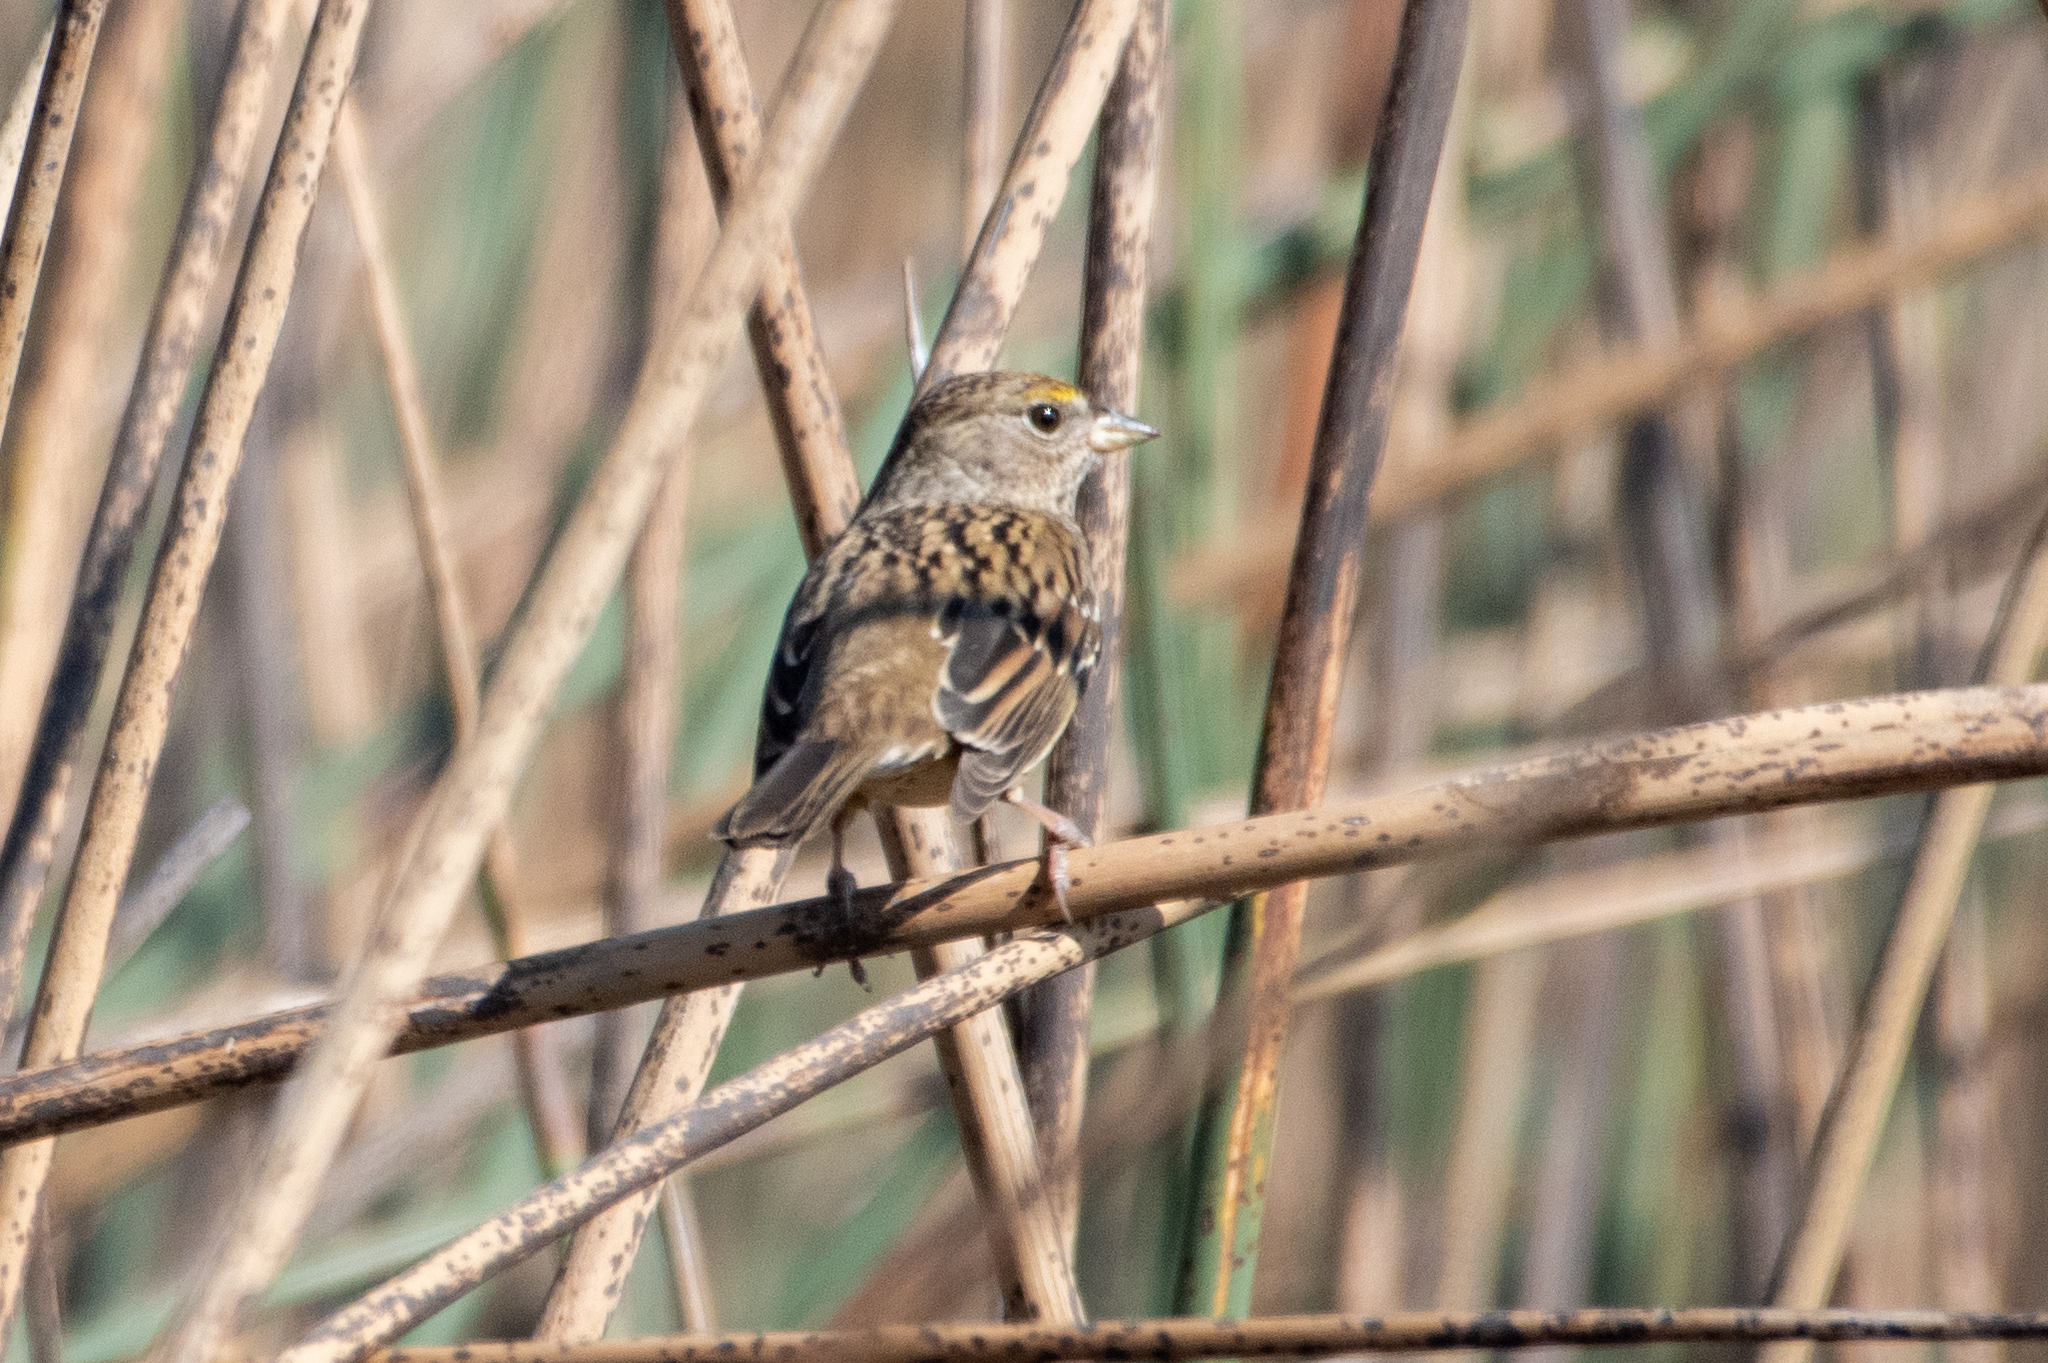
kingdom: Animalia
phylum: Chordata
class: Aves
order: Passeriformes
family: Passerellidae
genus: Zonotrichia
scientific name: Zonotrichia atricapilla
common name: Golden-crowned sparrow
